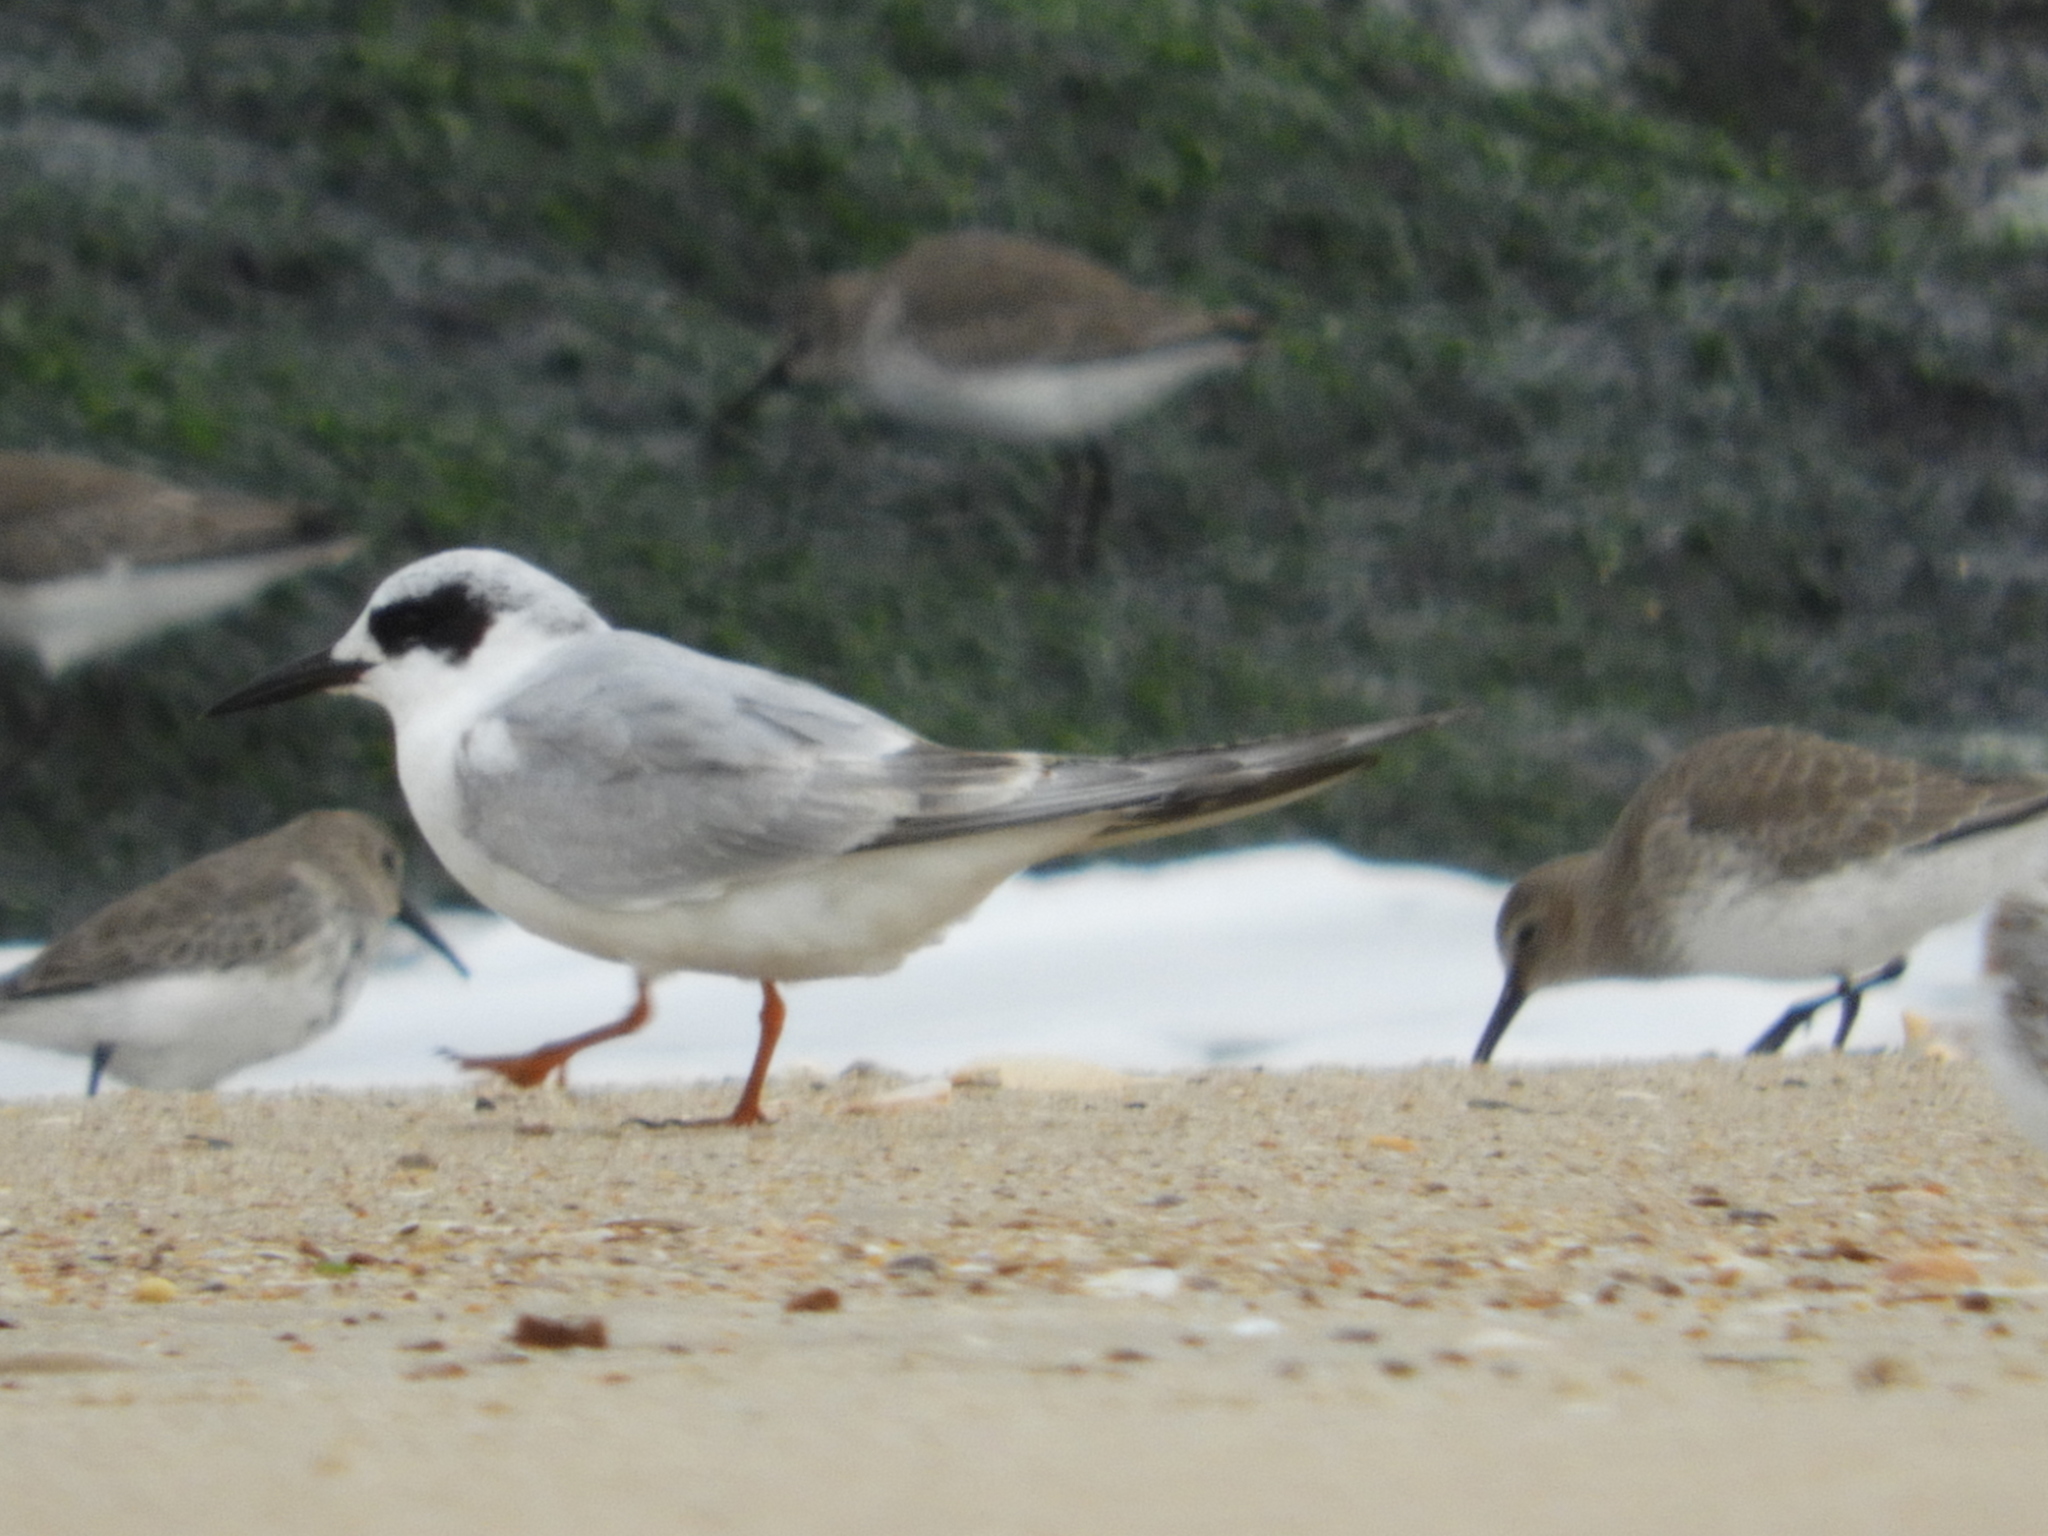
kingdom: Animalia
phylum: Chordata
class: Aves
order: Charadriiformes
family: Laridae
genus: Sterna
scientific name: Sterna forsteri
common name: Forster's tern
